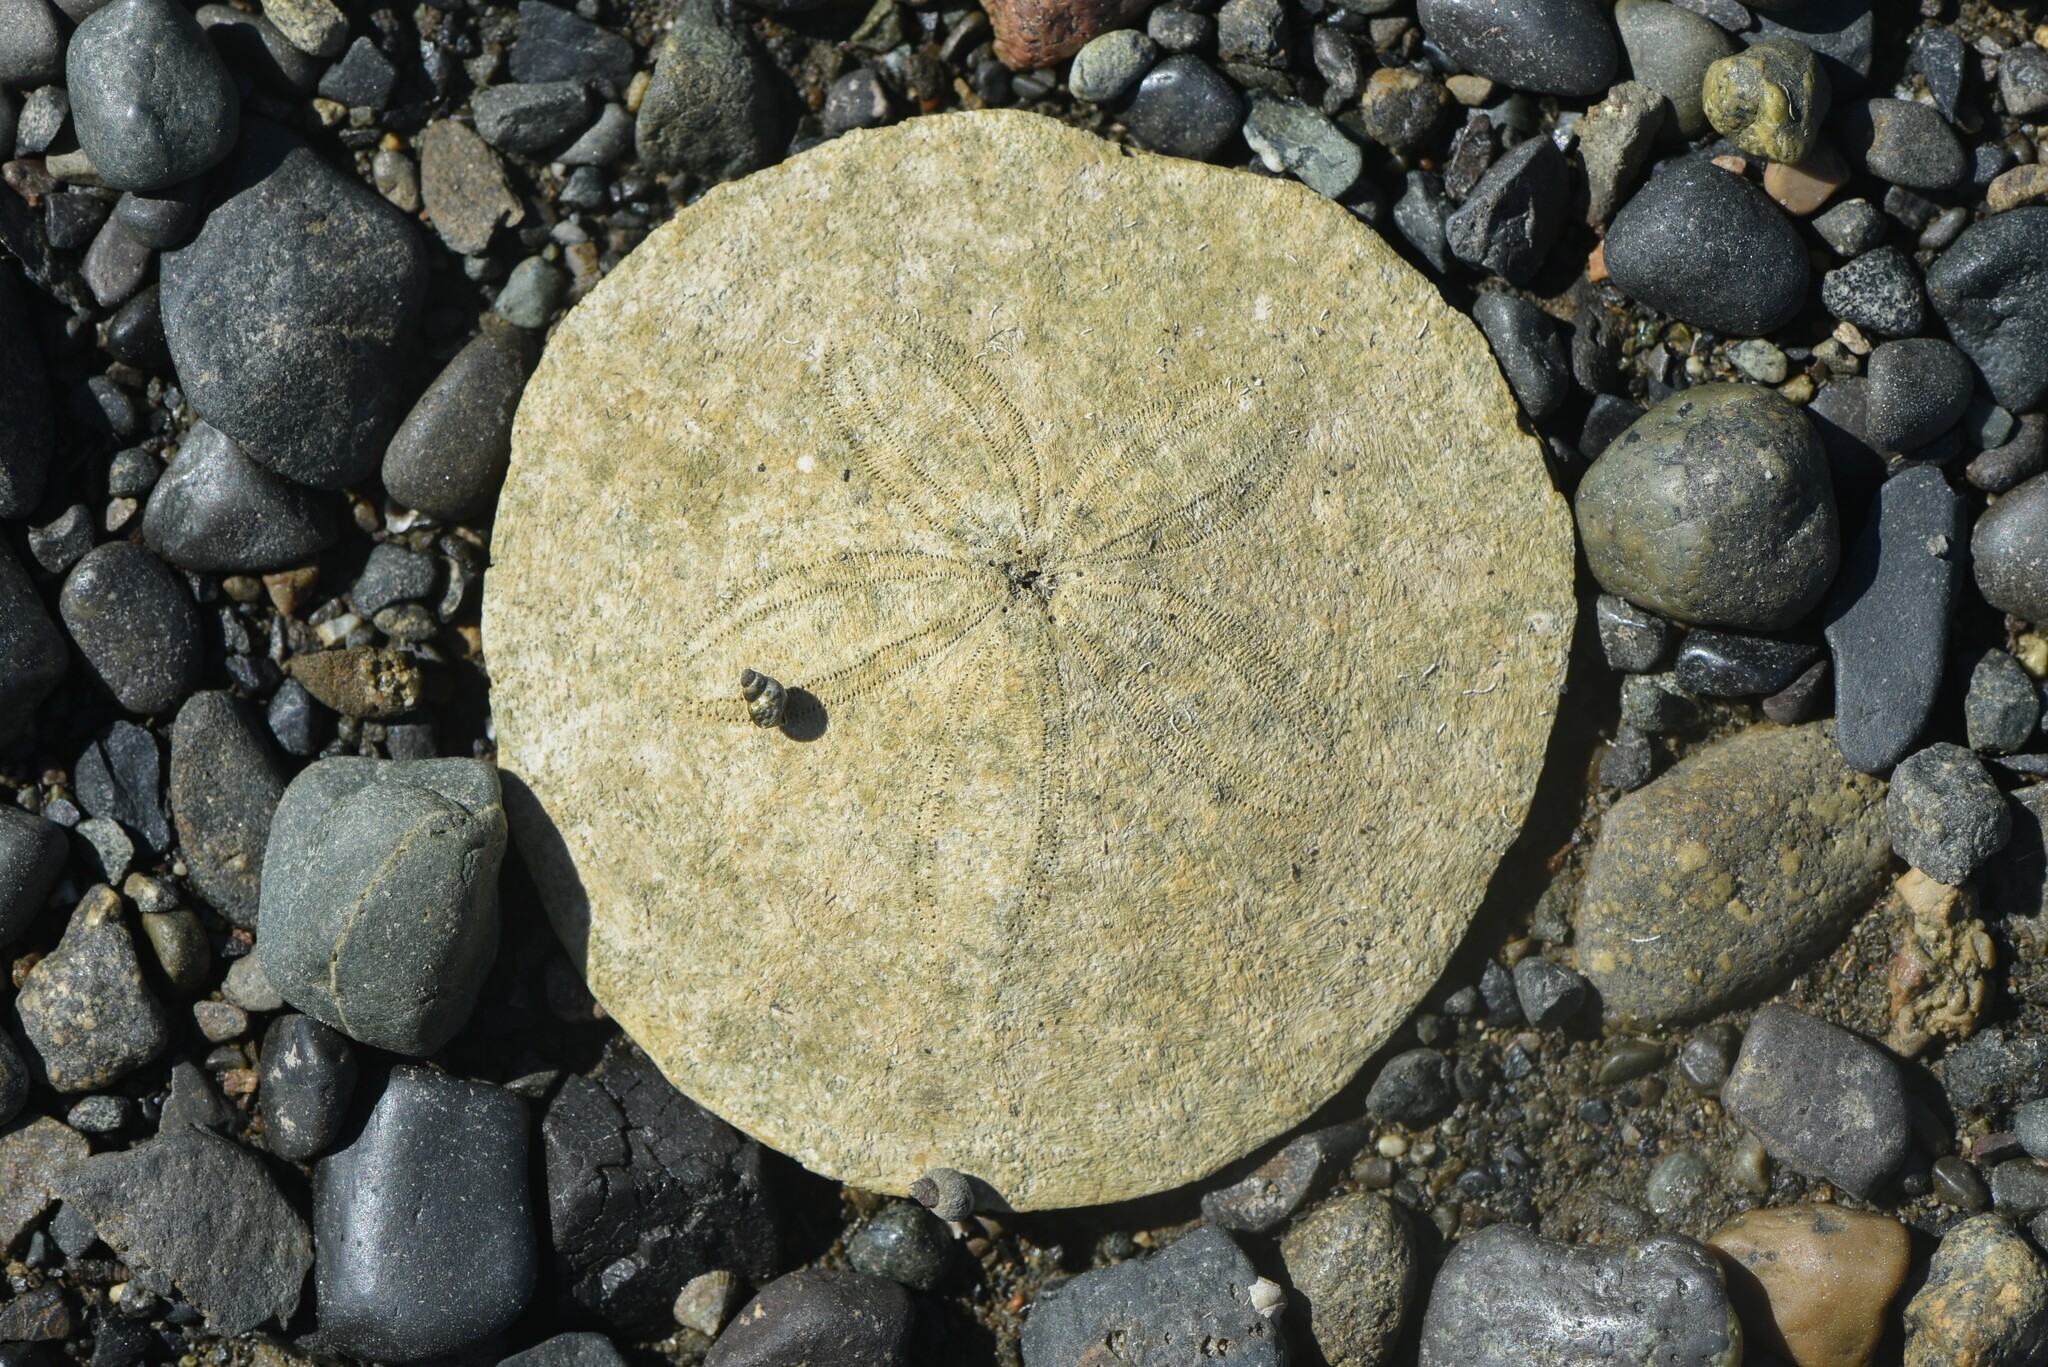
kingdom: Animalia
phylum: Echinodermata
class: Echinoidea
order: Echinolampadacea
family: Dendrasteridae
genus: Dendraster
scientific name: Dendraster excentricus
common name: Eccentric sand dollar sea urchin
